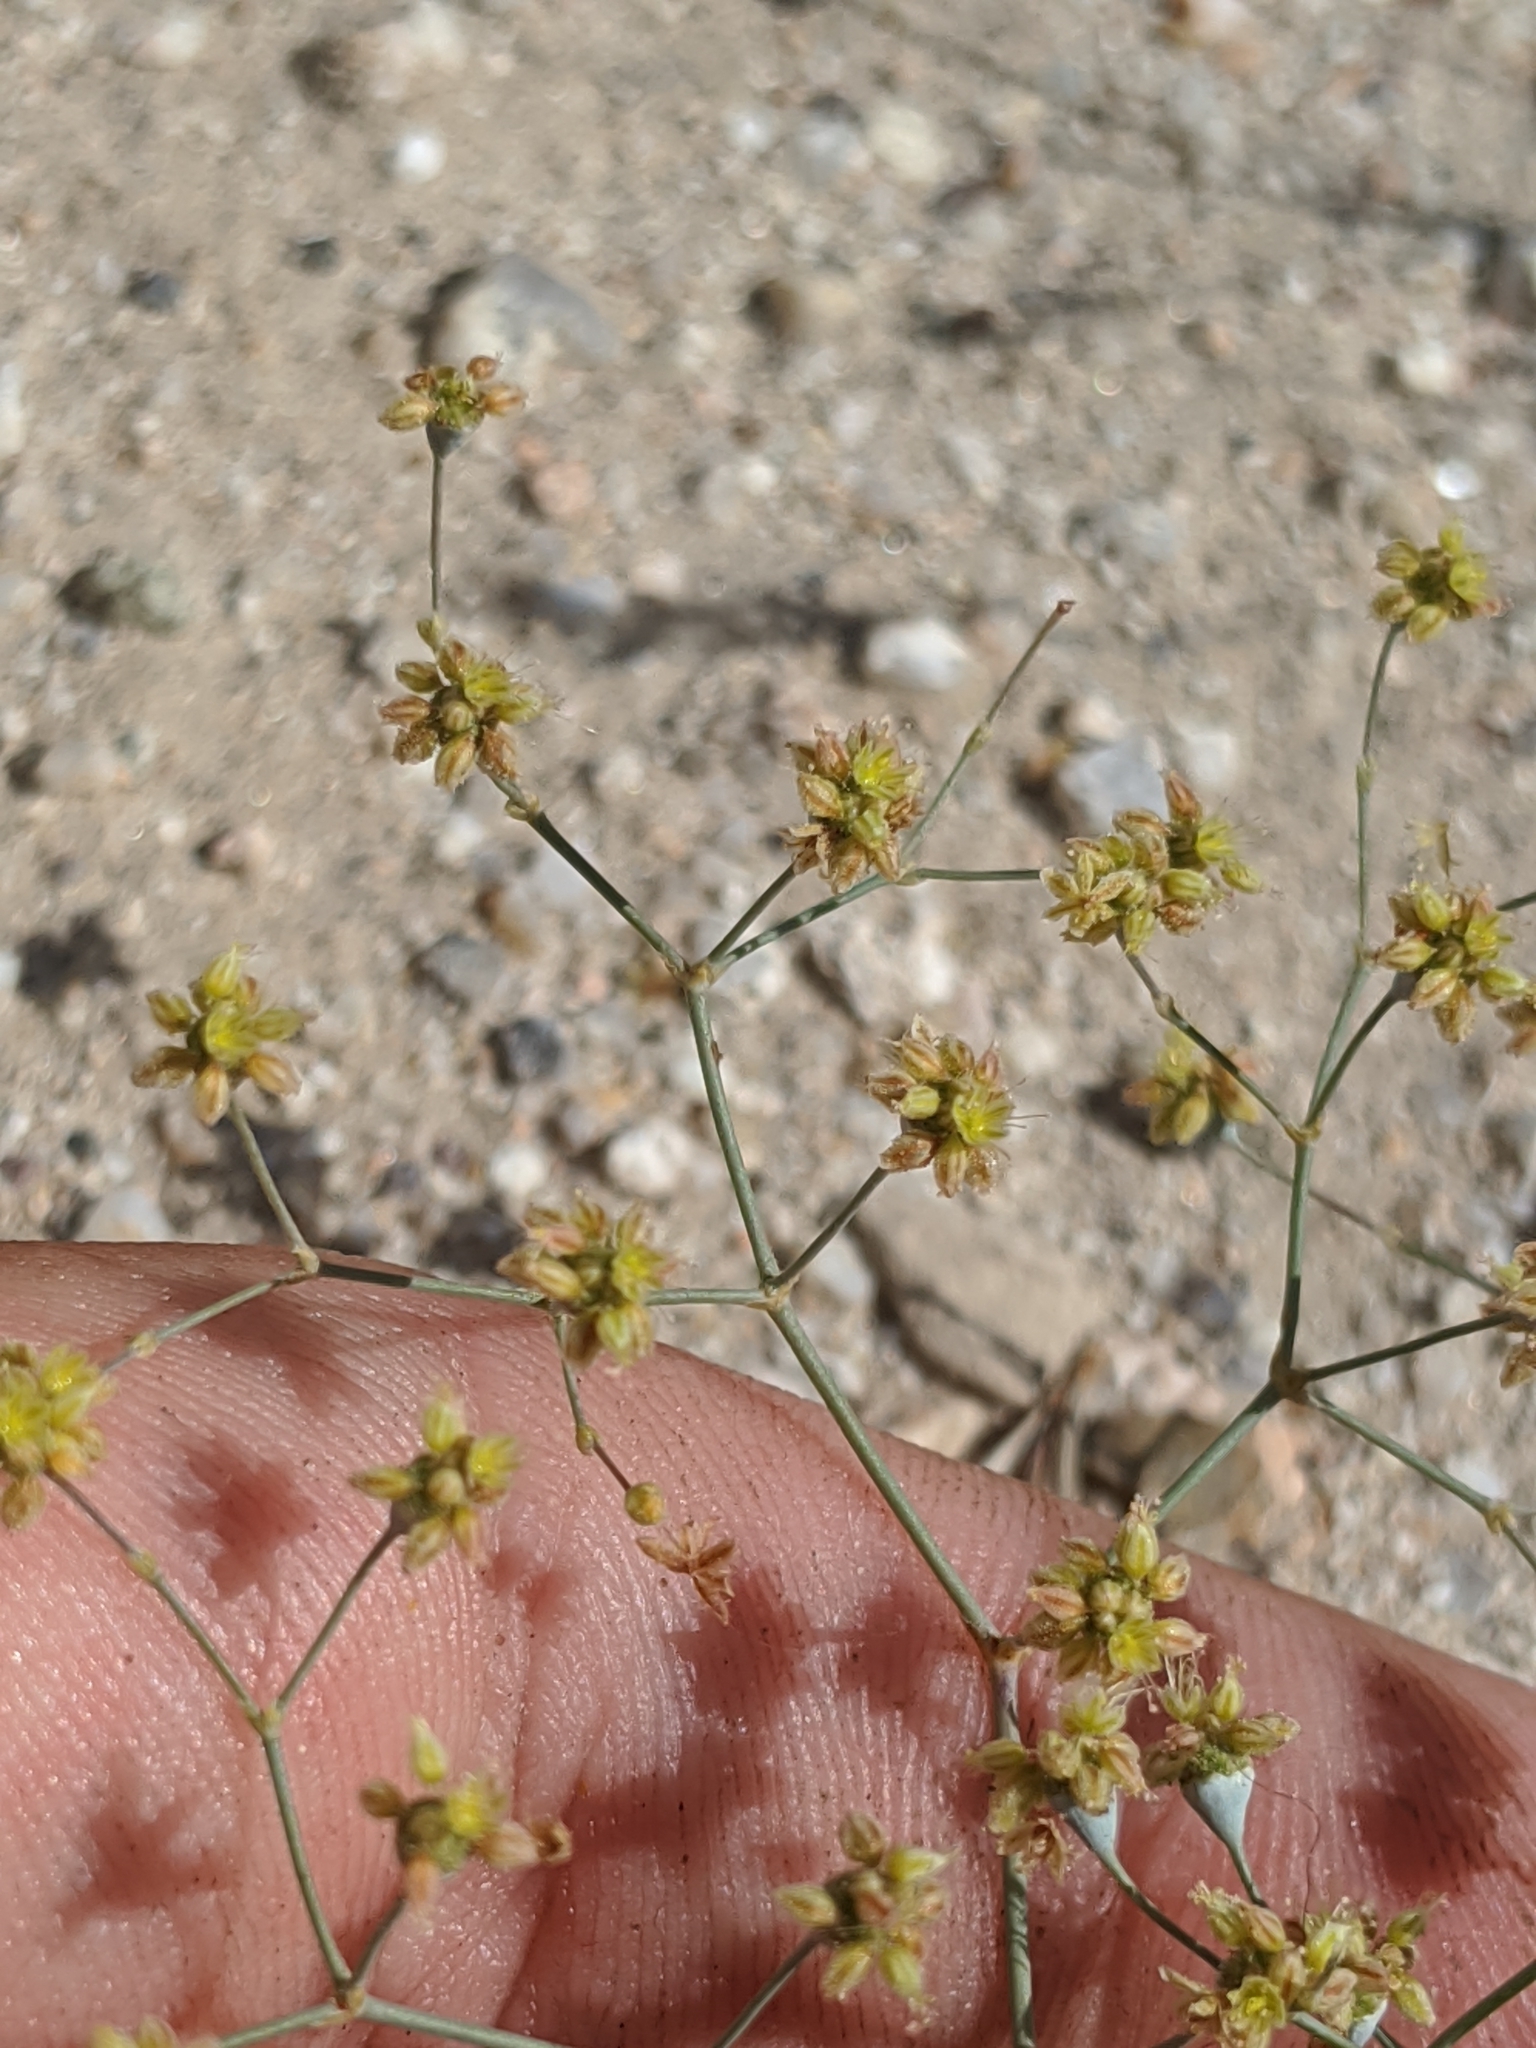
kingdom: Plantae
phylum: Tracheophyta
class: Magnoliopsida
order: Caryophyllales
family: Polygonaceae
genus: Eriogonum
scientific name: Eriogonum reniforme
